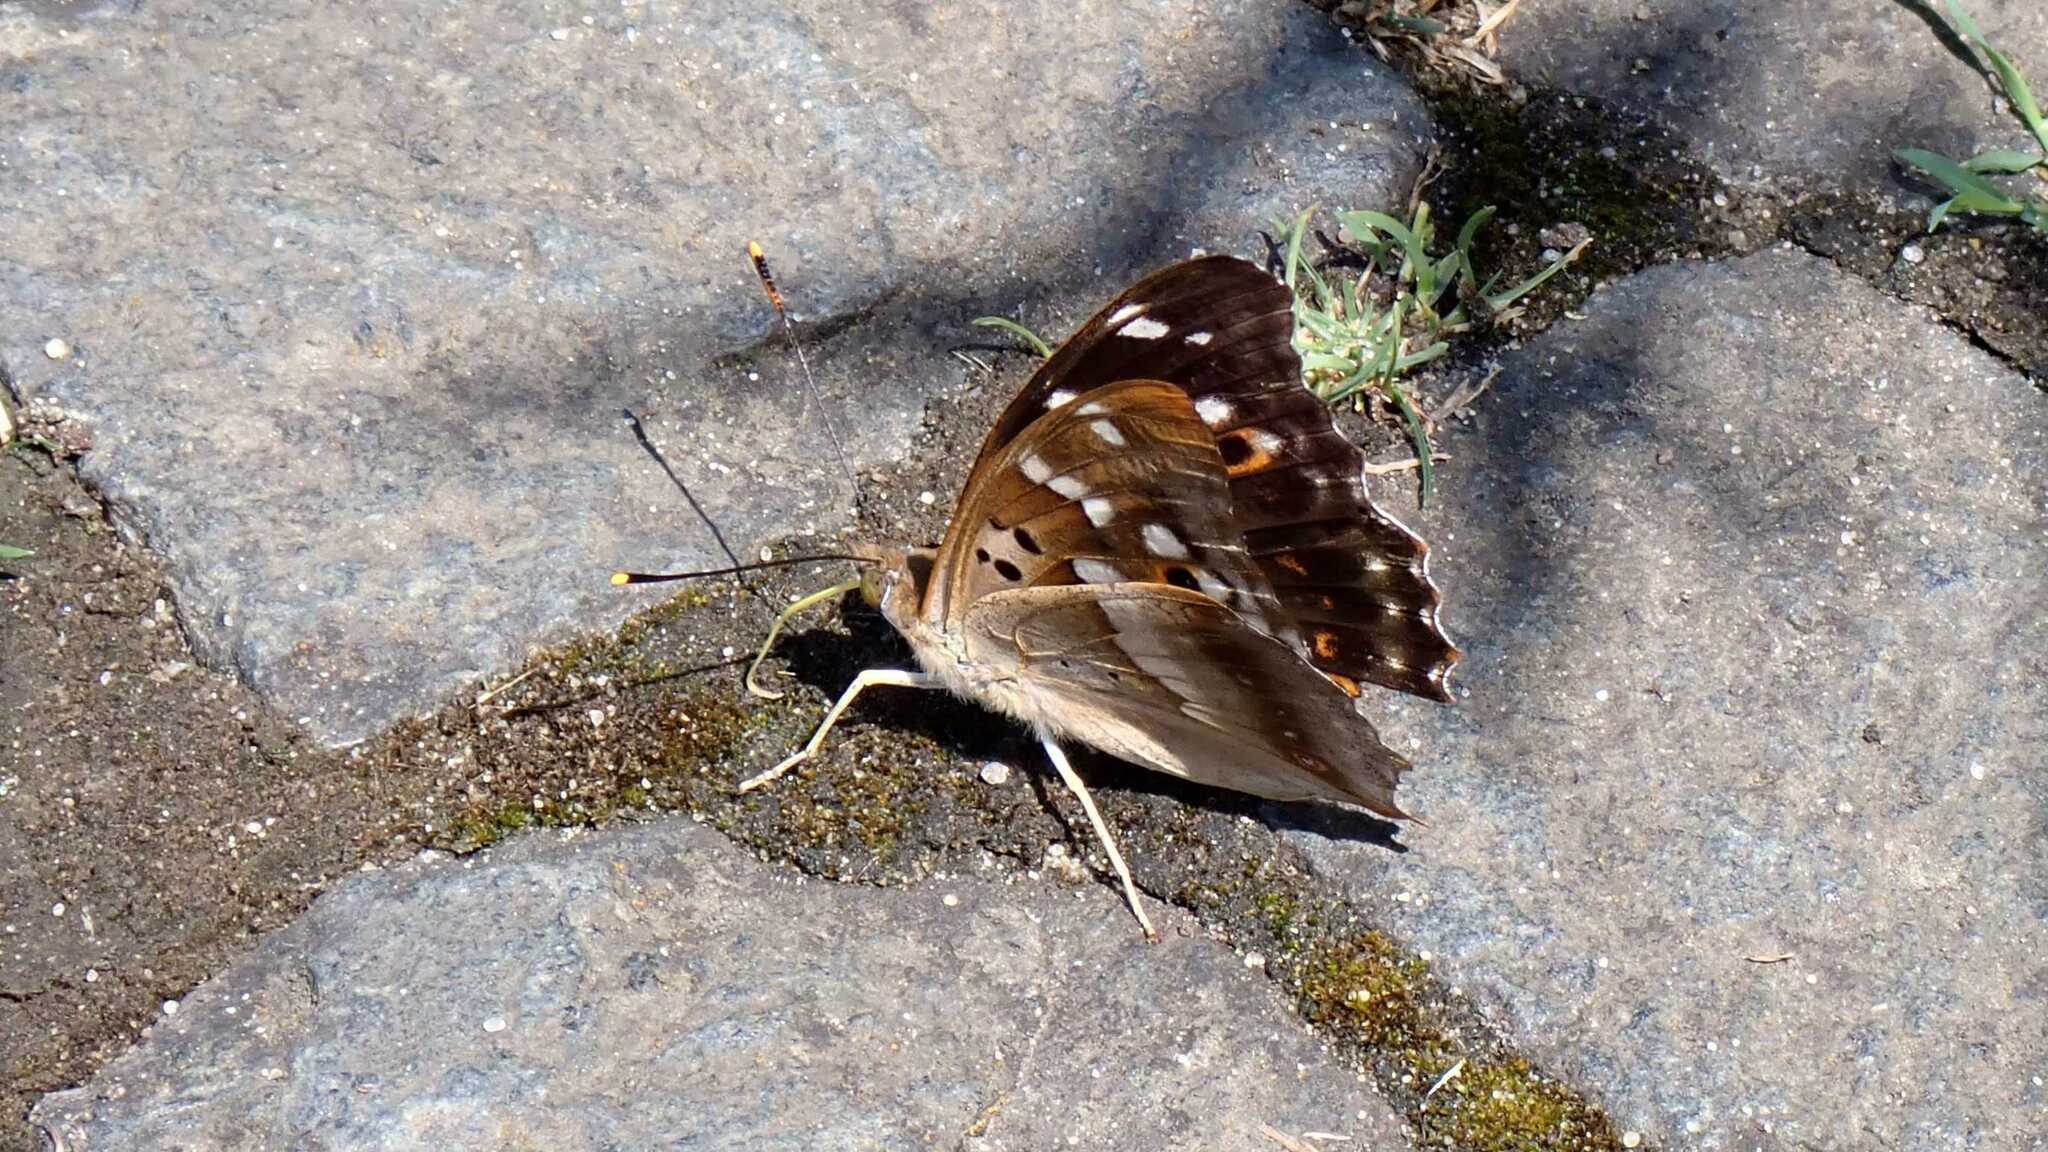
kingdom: Animalia
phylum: Arthropoda
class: Insecta
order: Lepidoptera
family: Nymphalidae
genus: Apatura
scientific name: Apatura ilia
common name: Lesser purple emperor
